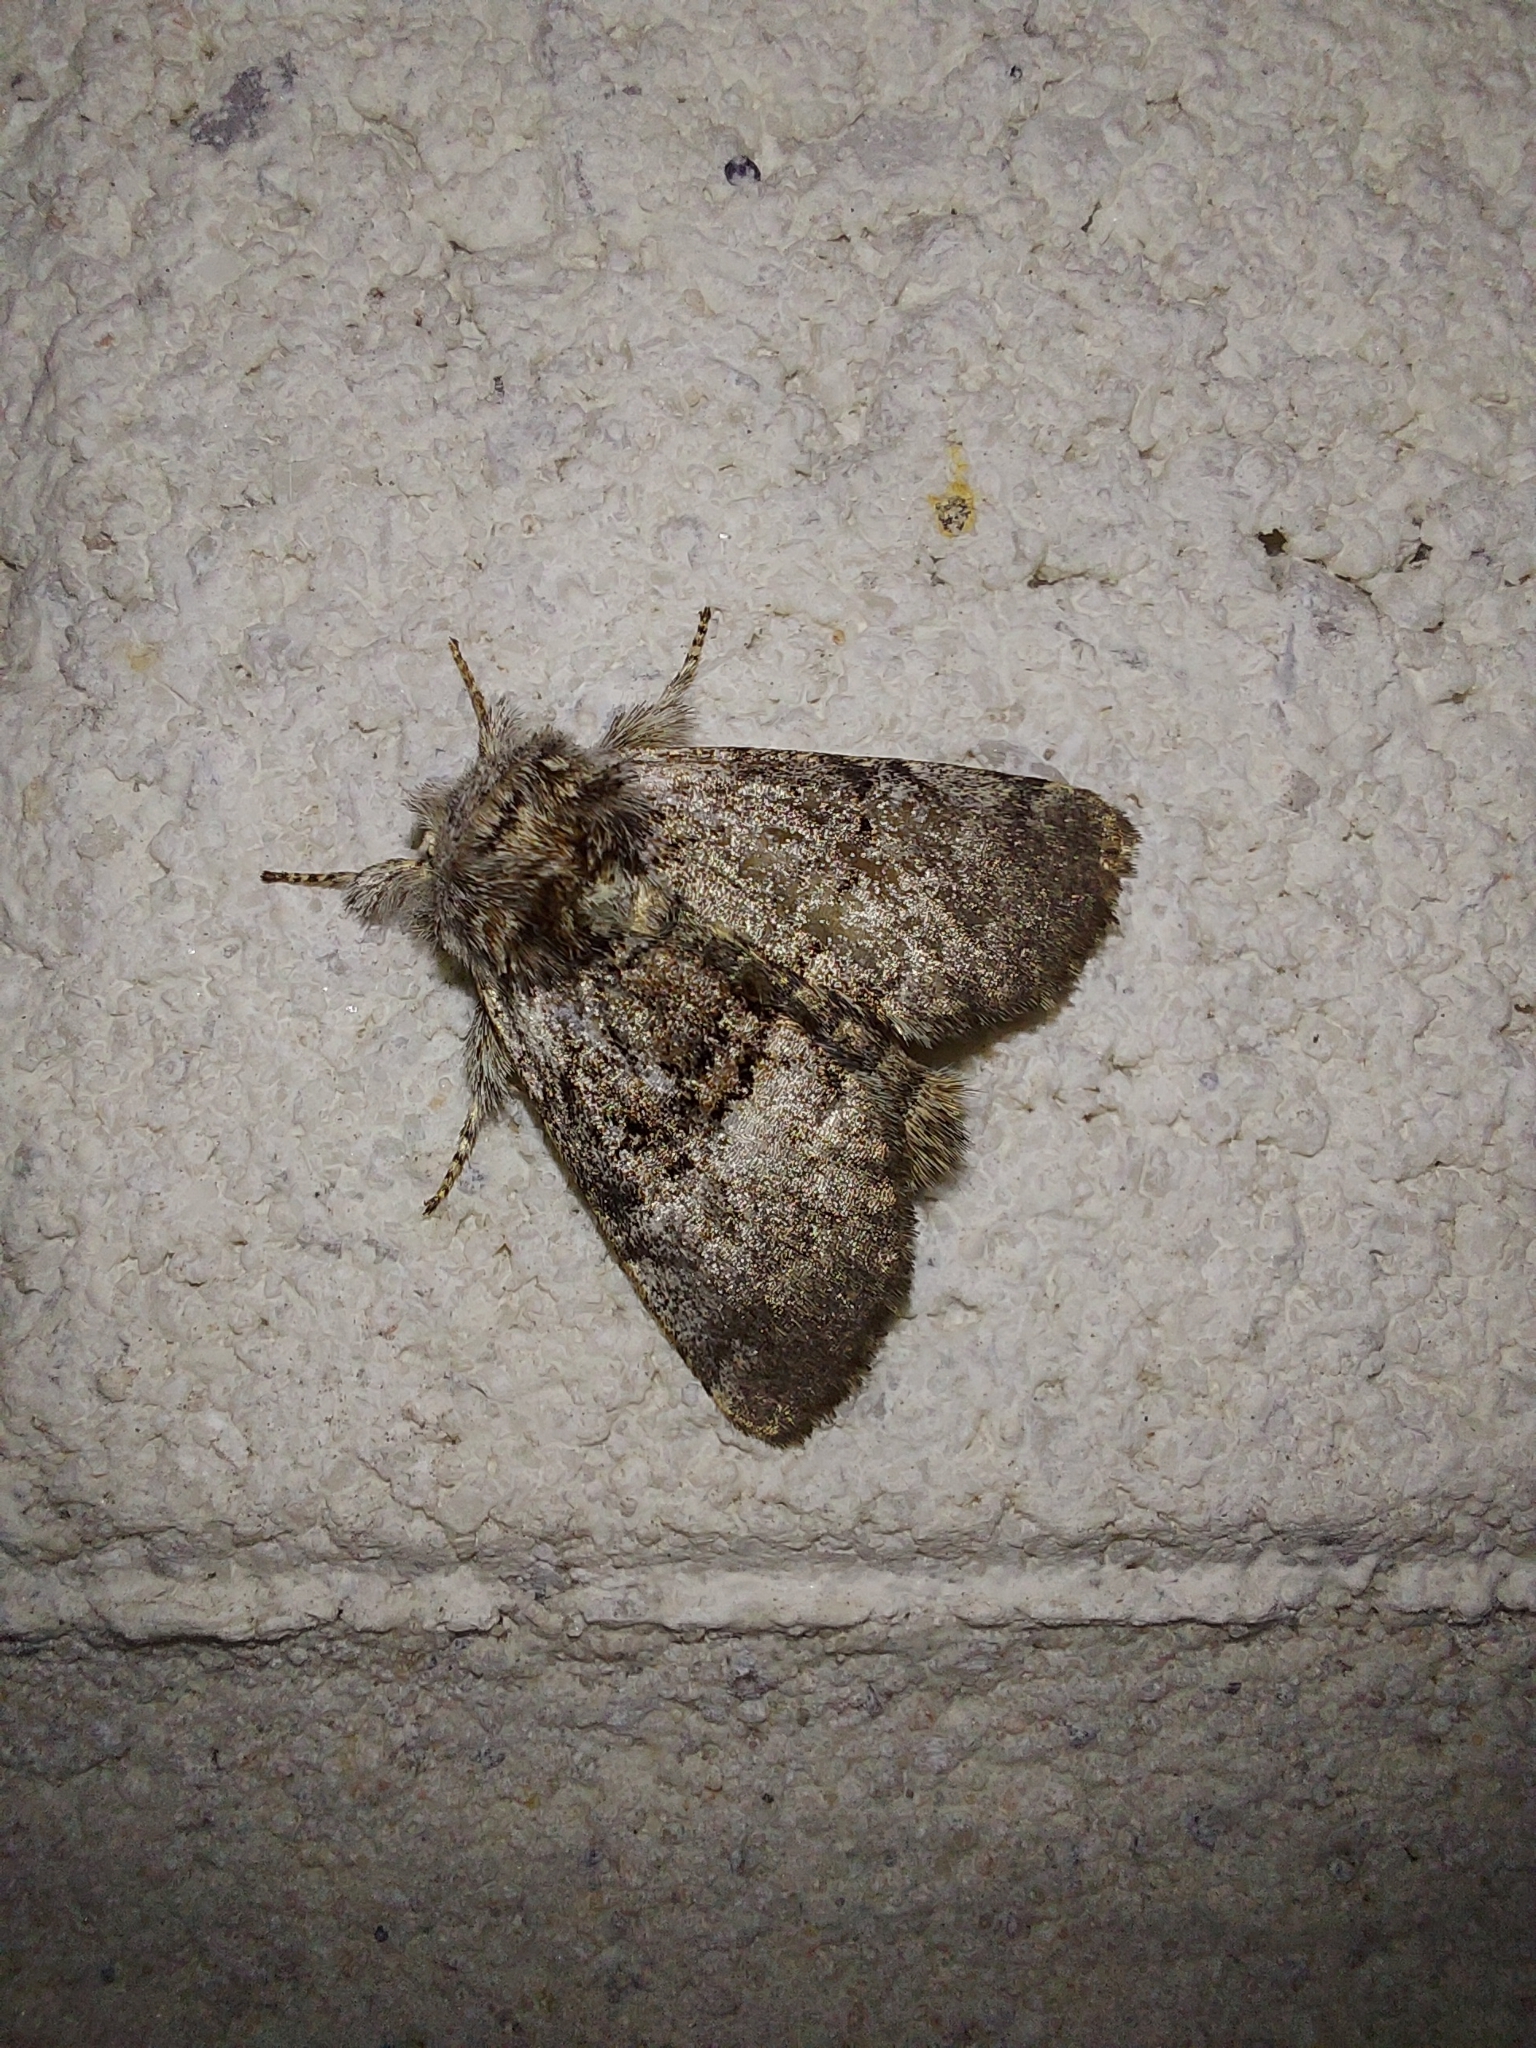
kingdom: Animalia
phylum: Arthropoda
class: Insecta
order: Lepidoptera
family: Noctuidae
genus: Colocasia
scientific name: Colocasia coryli
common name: Nut-tree tussock
